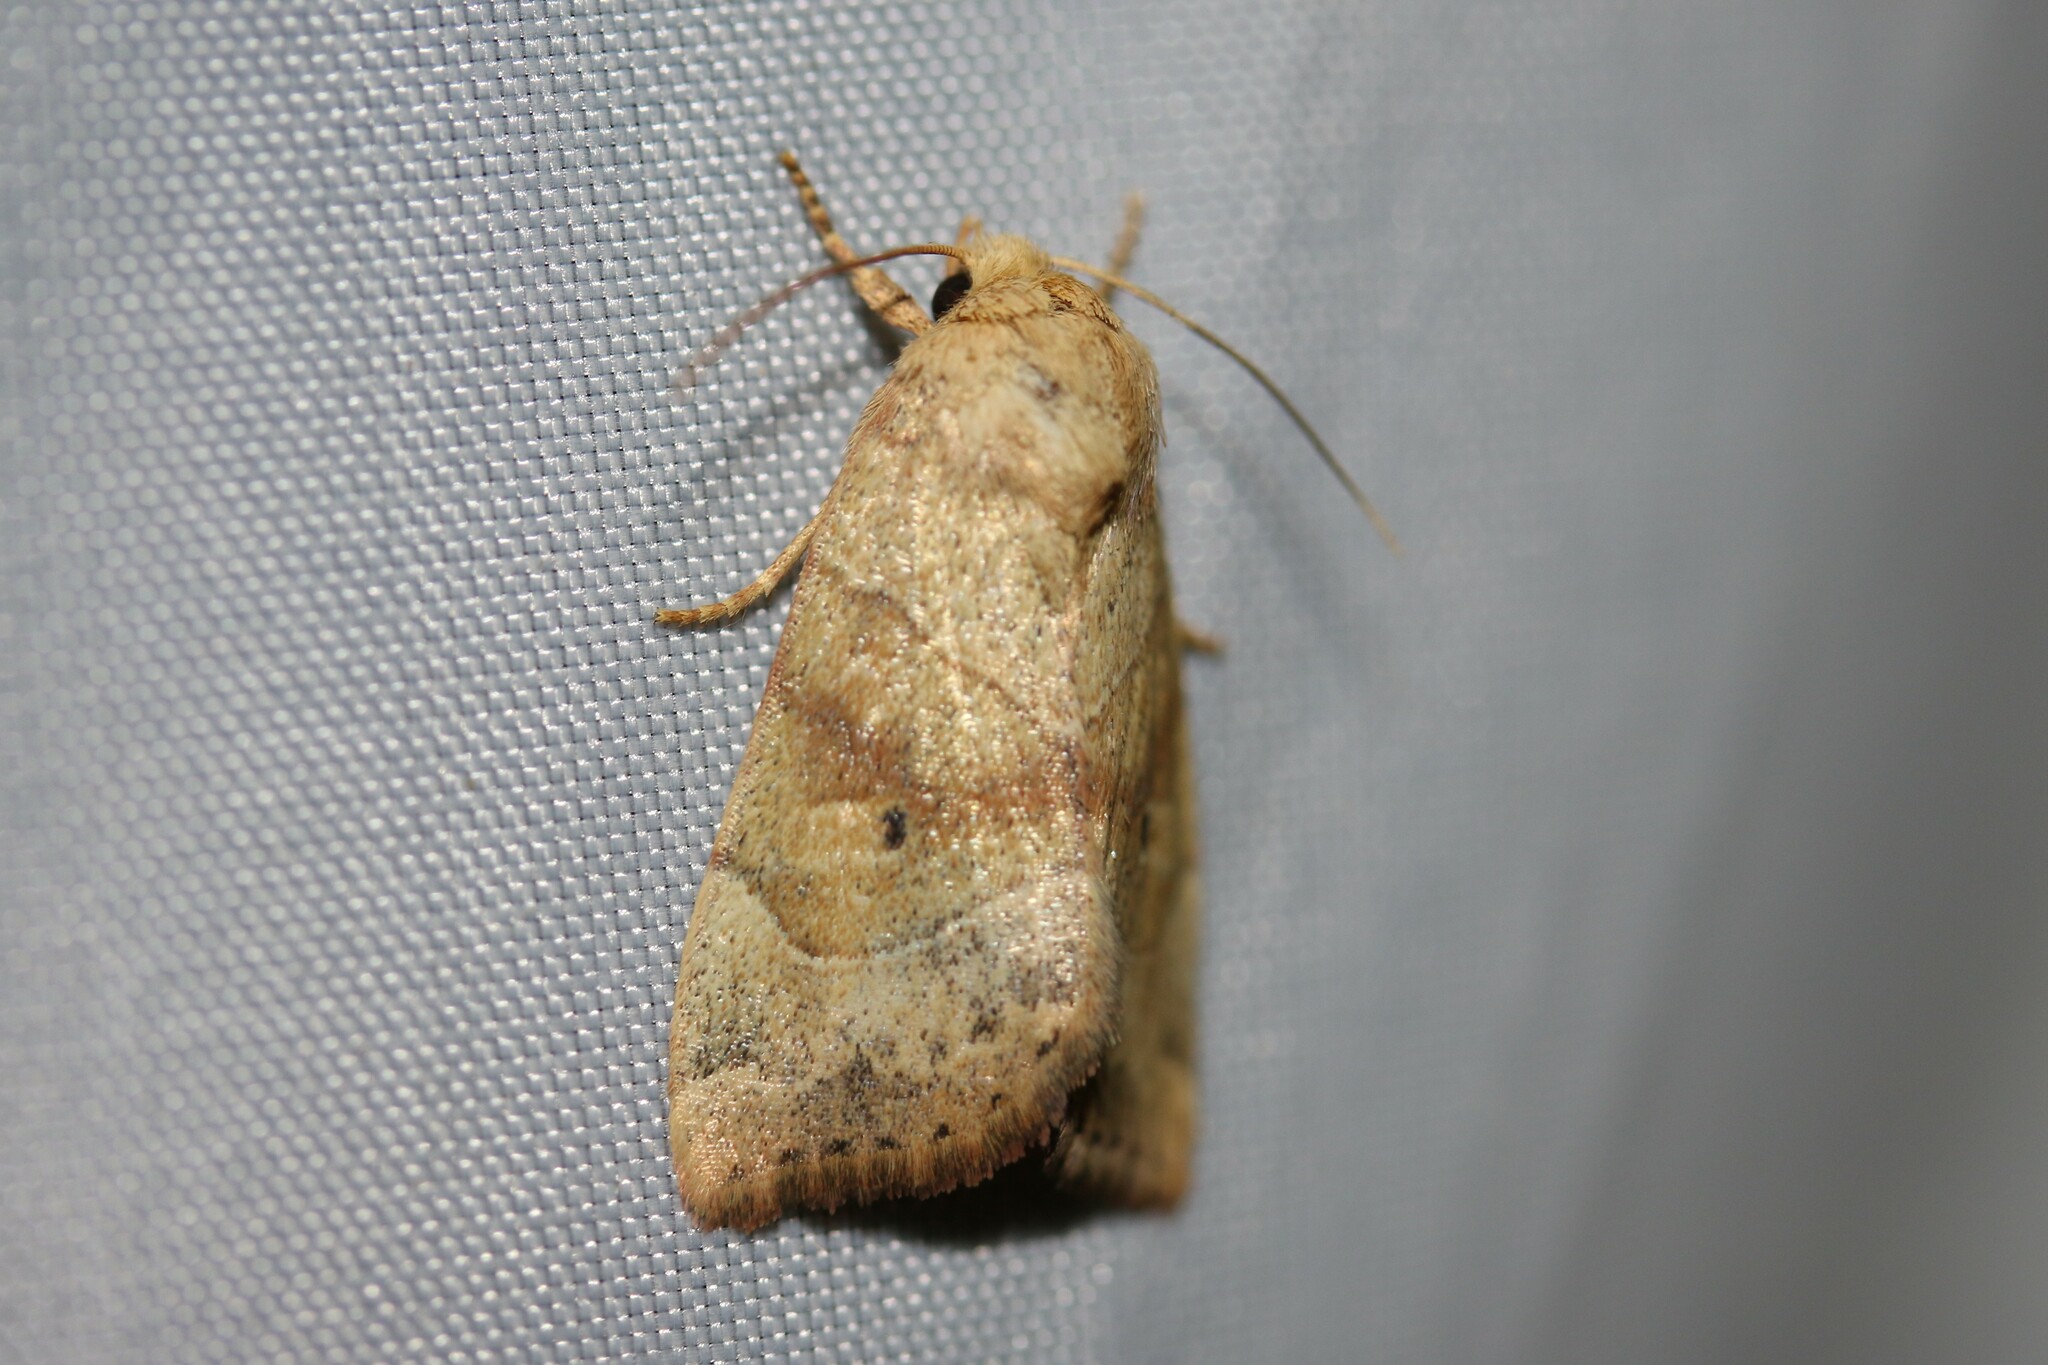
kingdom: Animalia
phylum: Arthropoda
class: Insecta
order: Lepidoptera
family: Noctuidae
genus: Cosmia
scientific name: Cosmia trapezina
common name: Dun-bar
